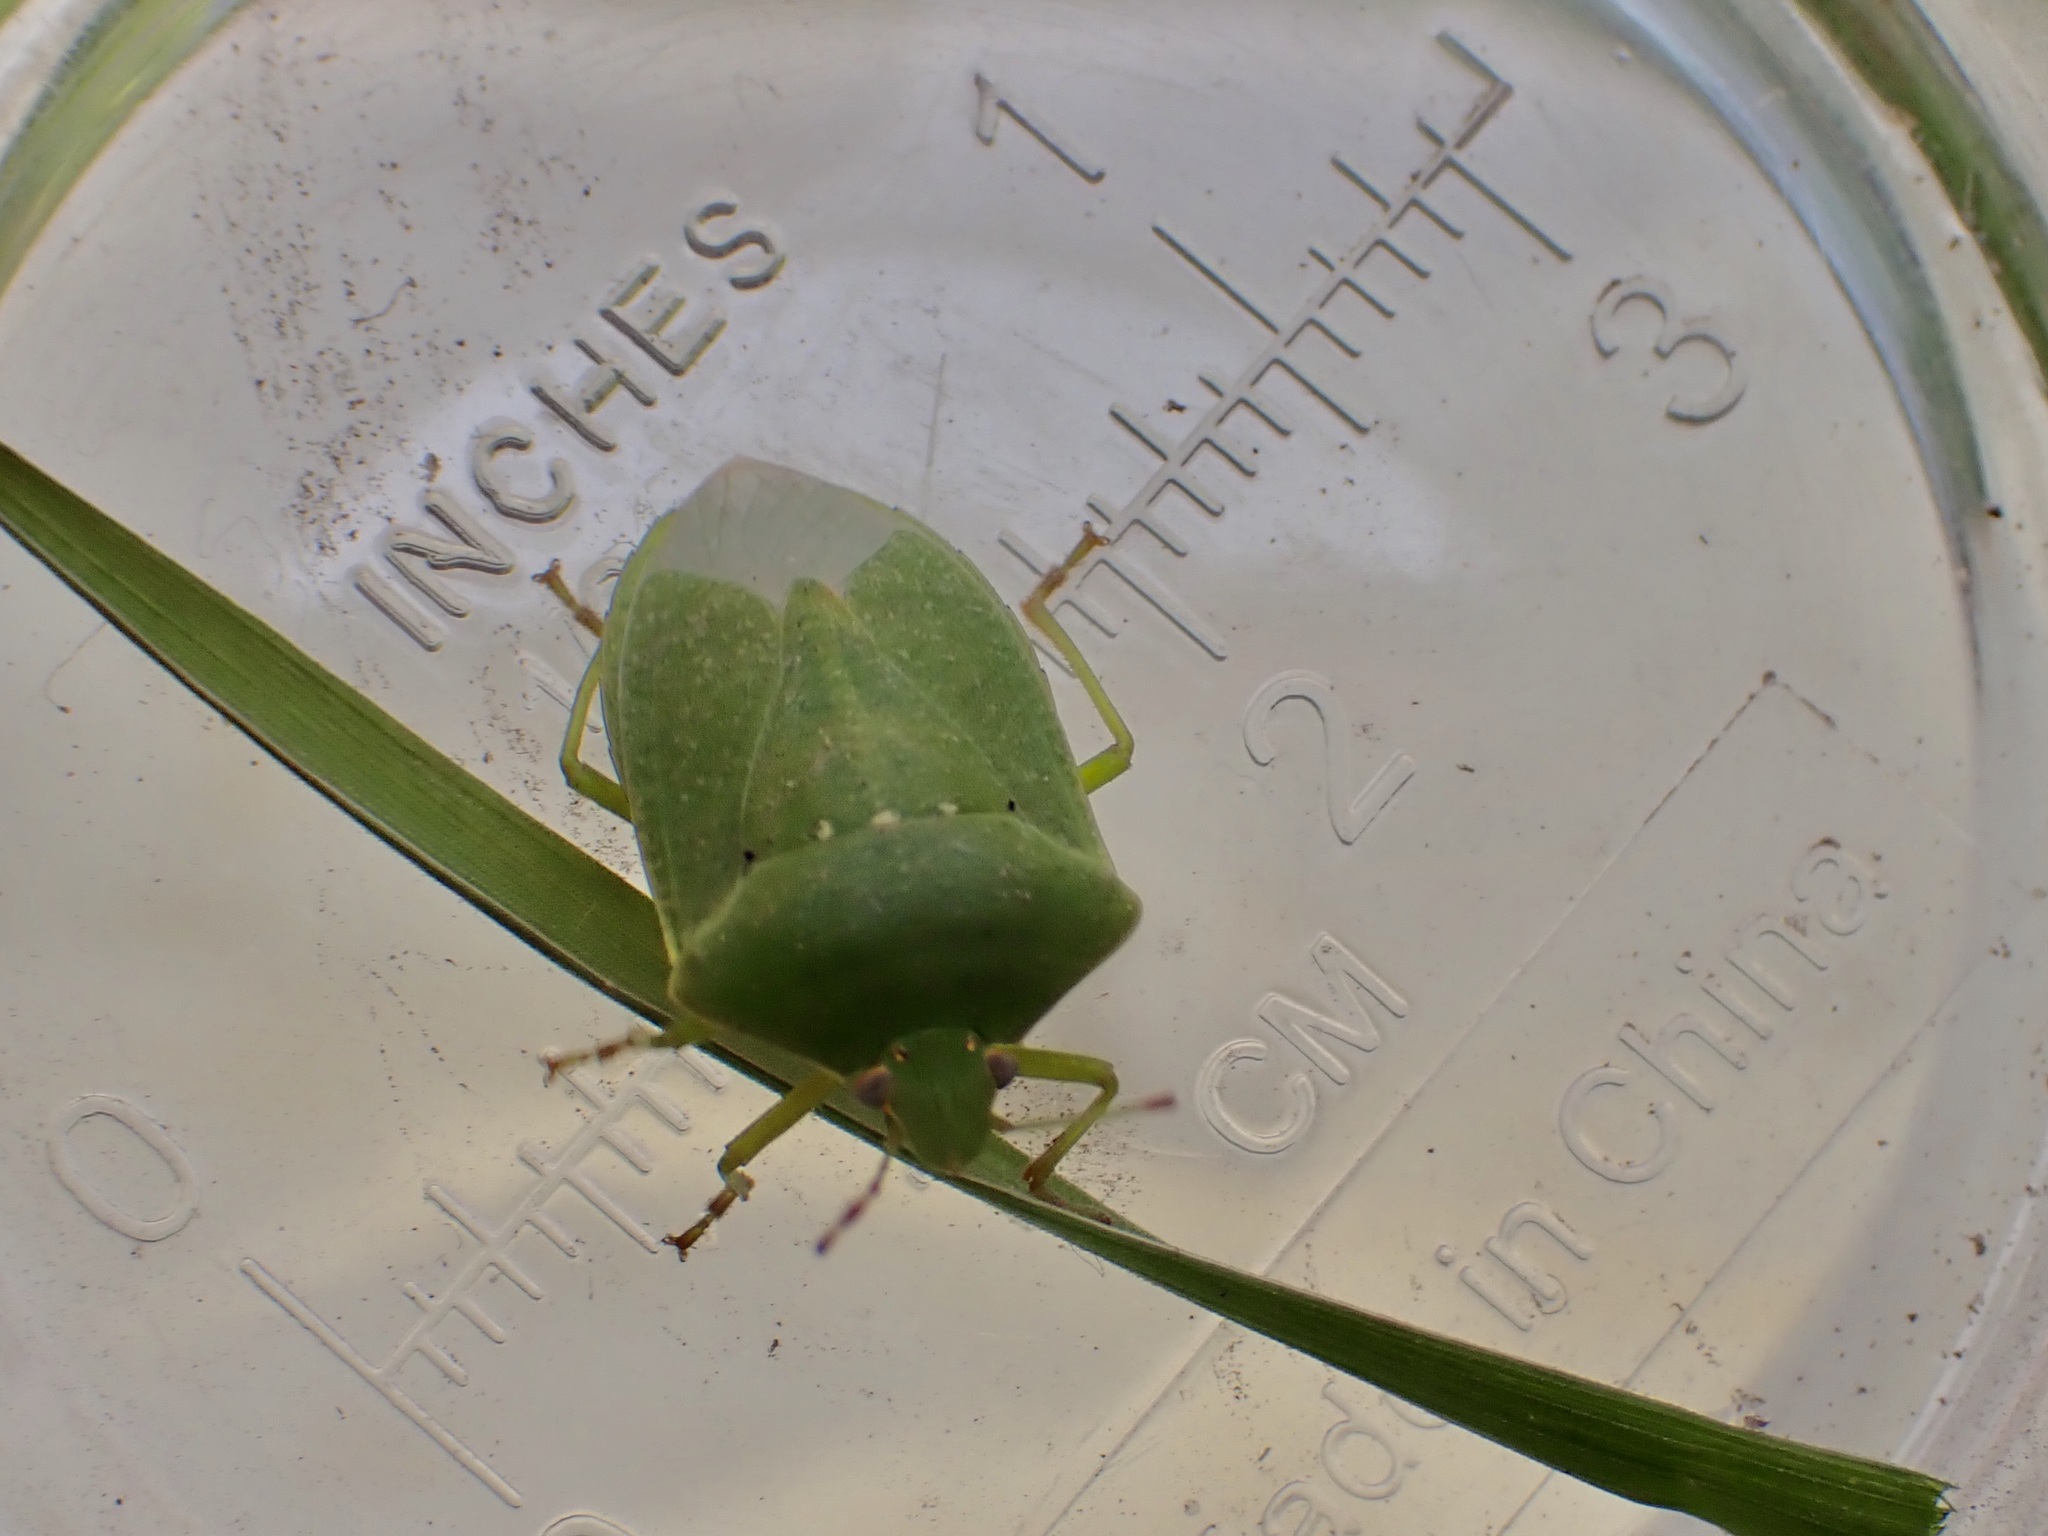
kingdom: Animalia
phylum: Arthropoda
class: Insecta
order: Hemiptera
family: Pentatomidae
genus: Nezara
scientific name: Nezara viridula
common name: Southern green stink bug
